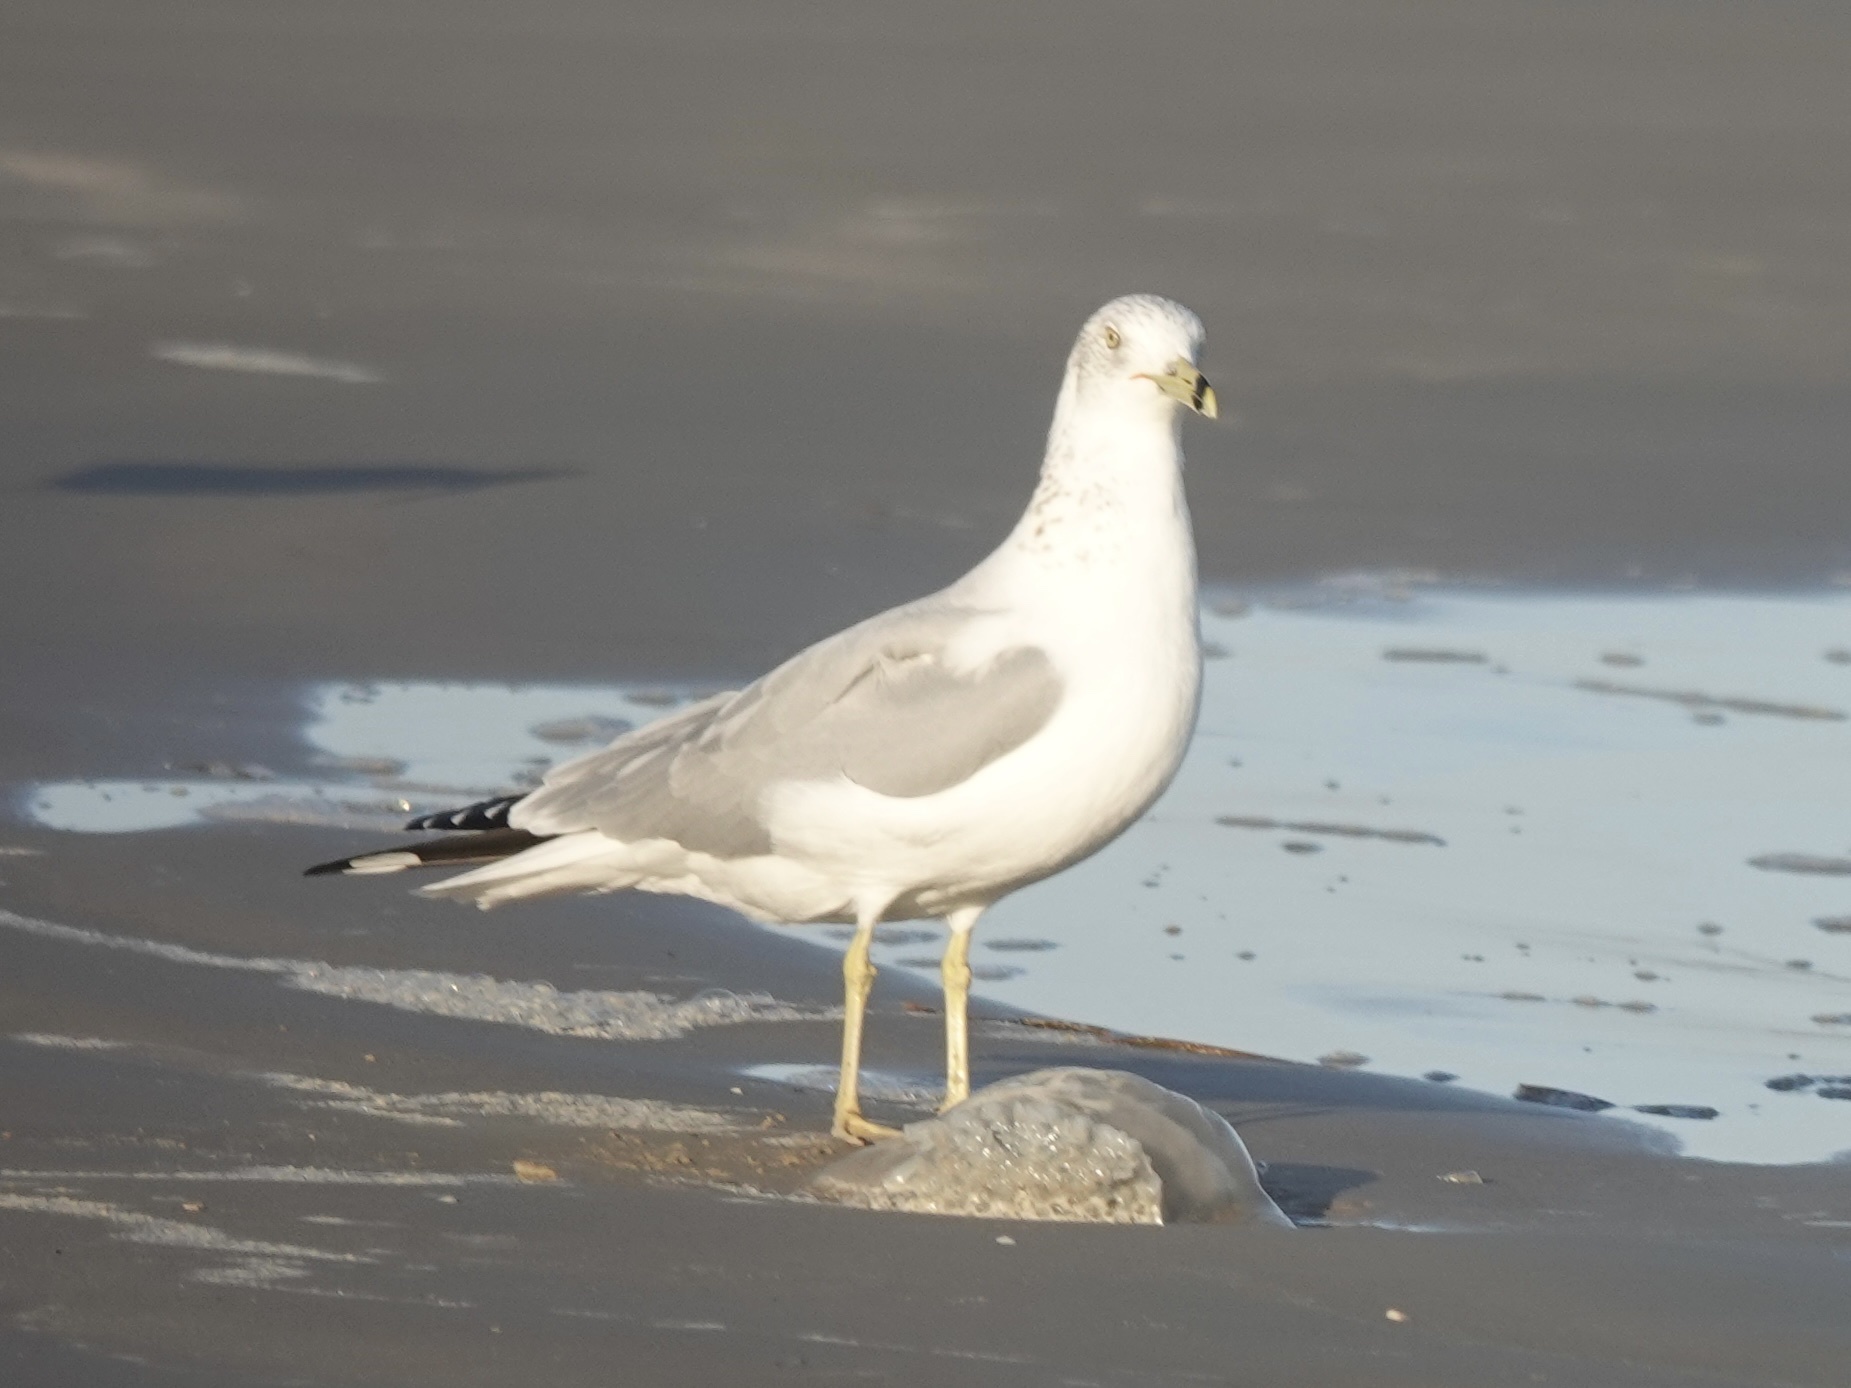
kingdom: Animalia
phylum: Chordata
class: Aves
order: Charadriiformes
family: Laridae
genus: Larus
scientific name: Larus delawarensis
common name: Ring-billed gull
